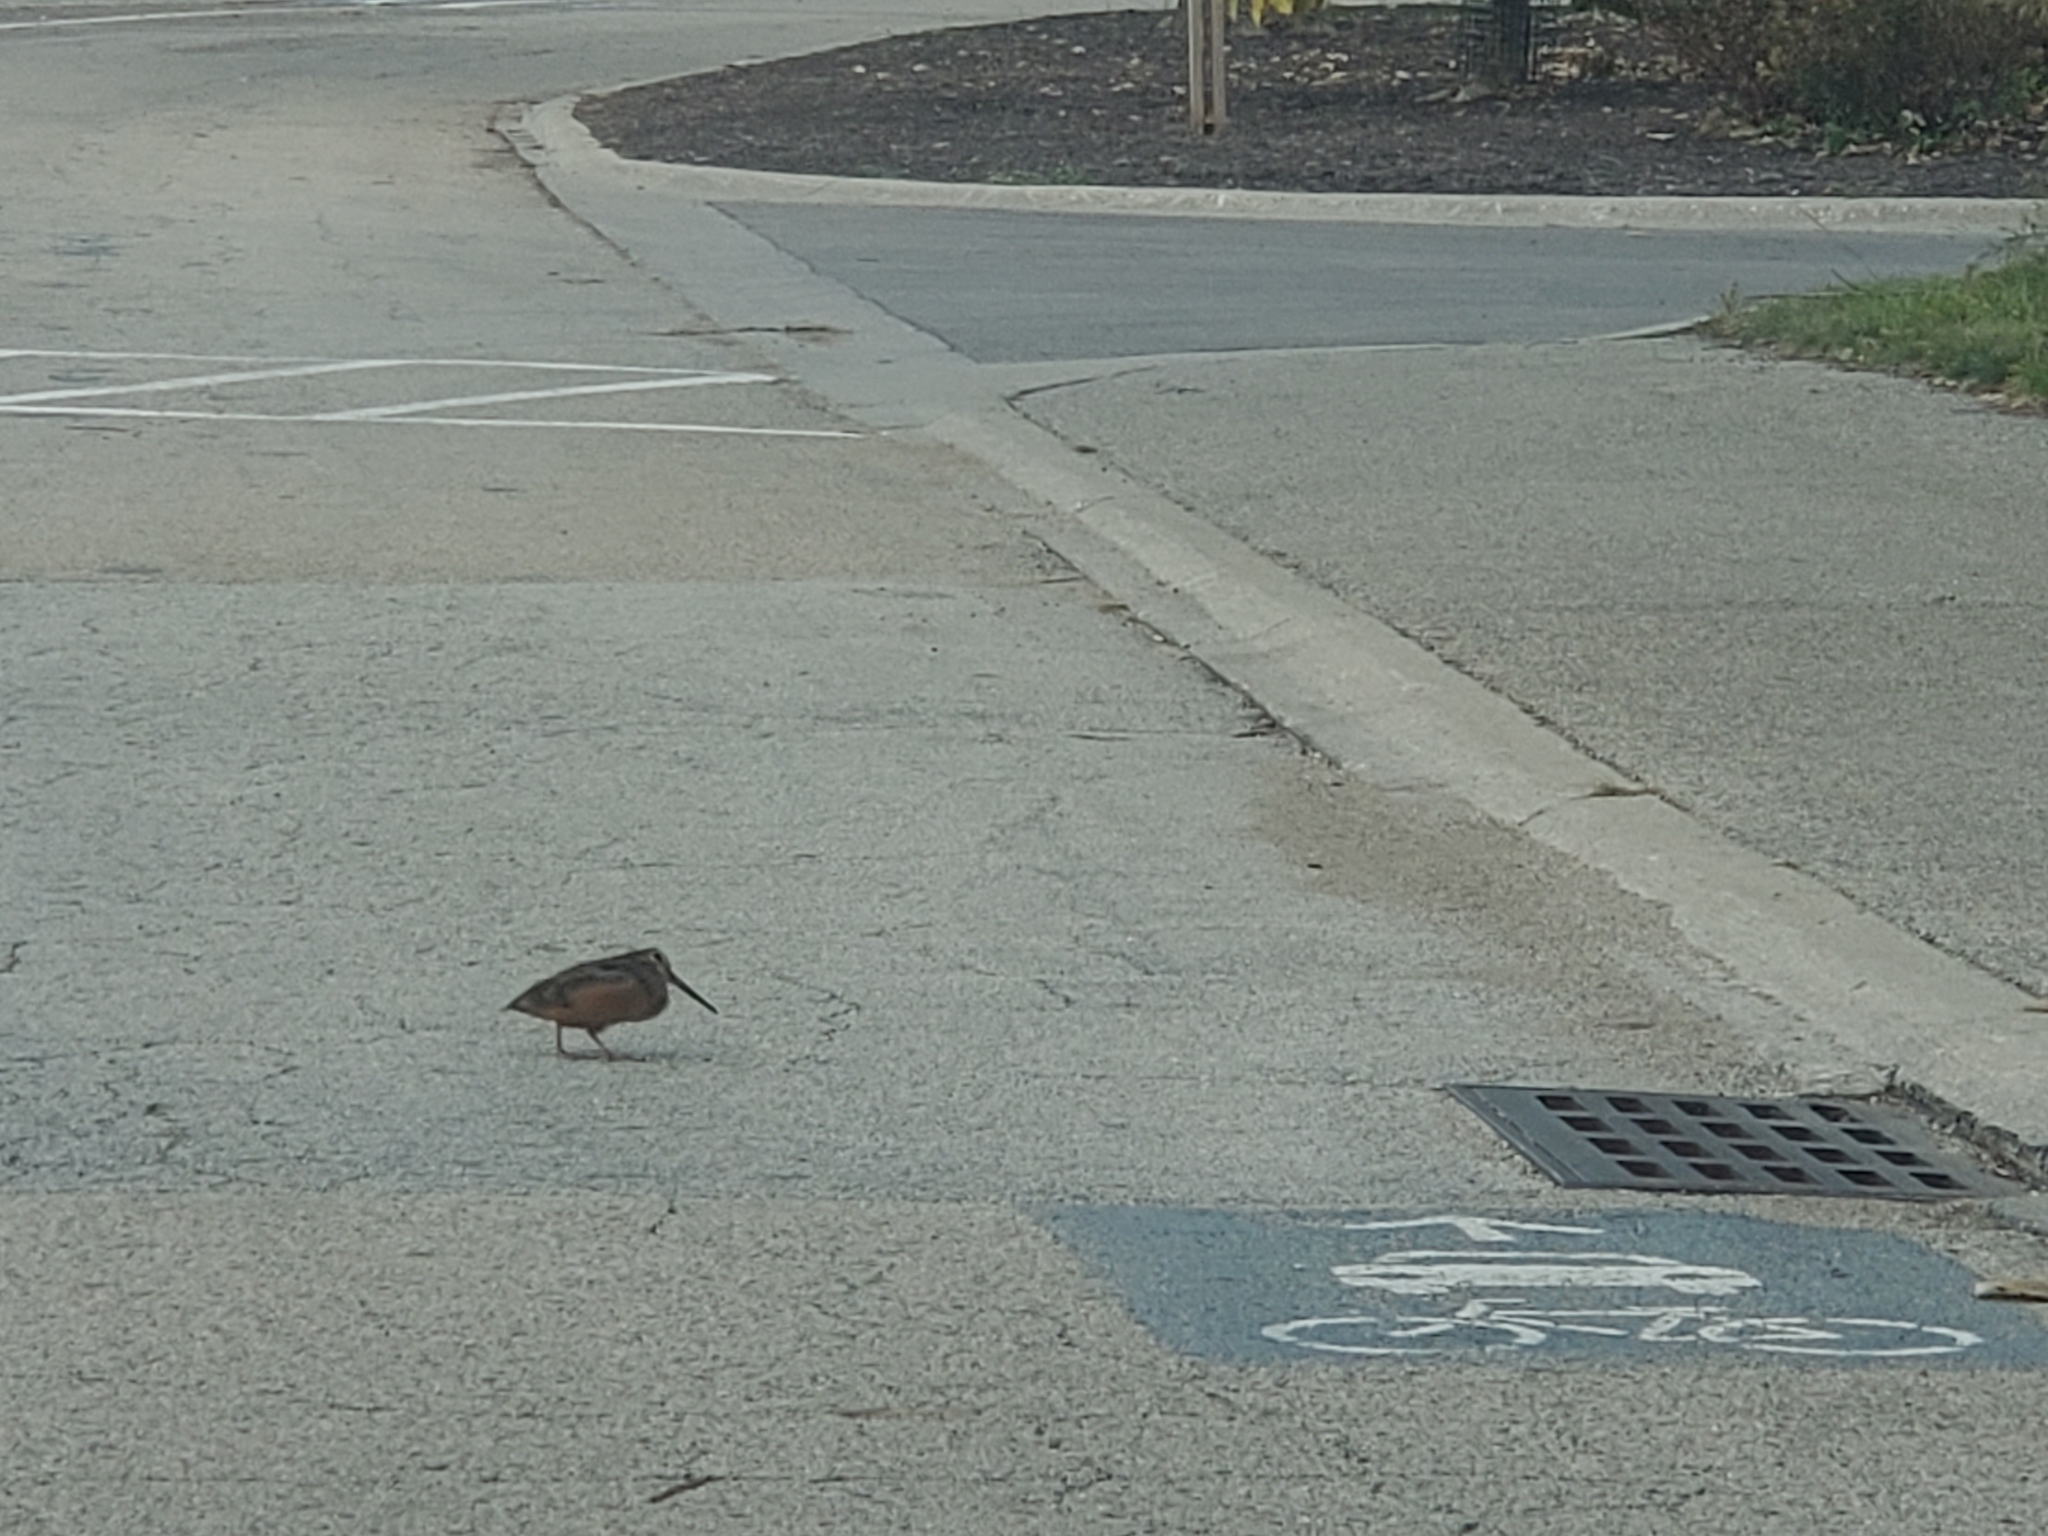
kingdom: Animalia
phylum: Chordata
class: Aves
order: Charadriiformes
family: Scolopacidae
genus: Scolopax
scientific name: Scolopax minor
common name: American woodcock
